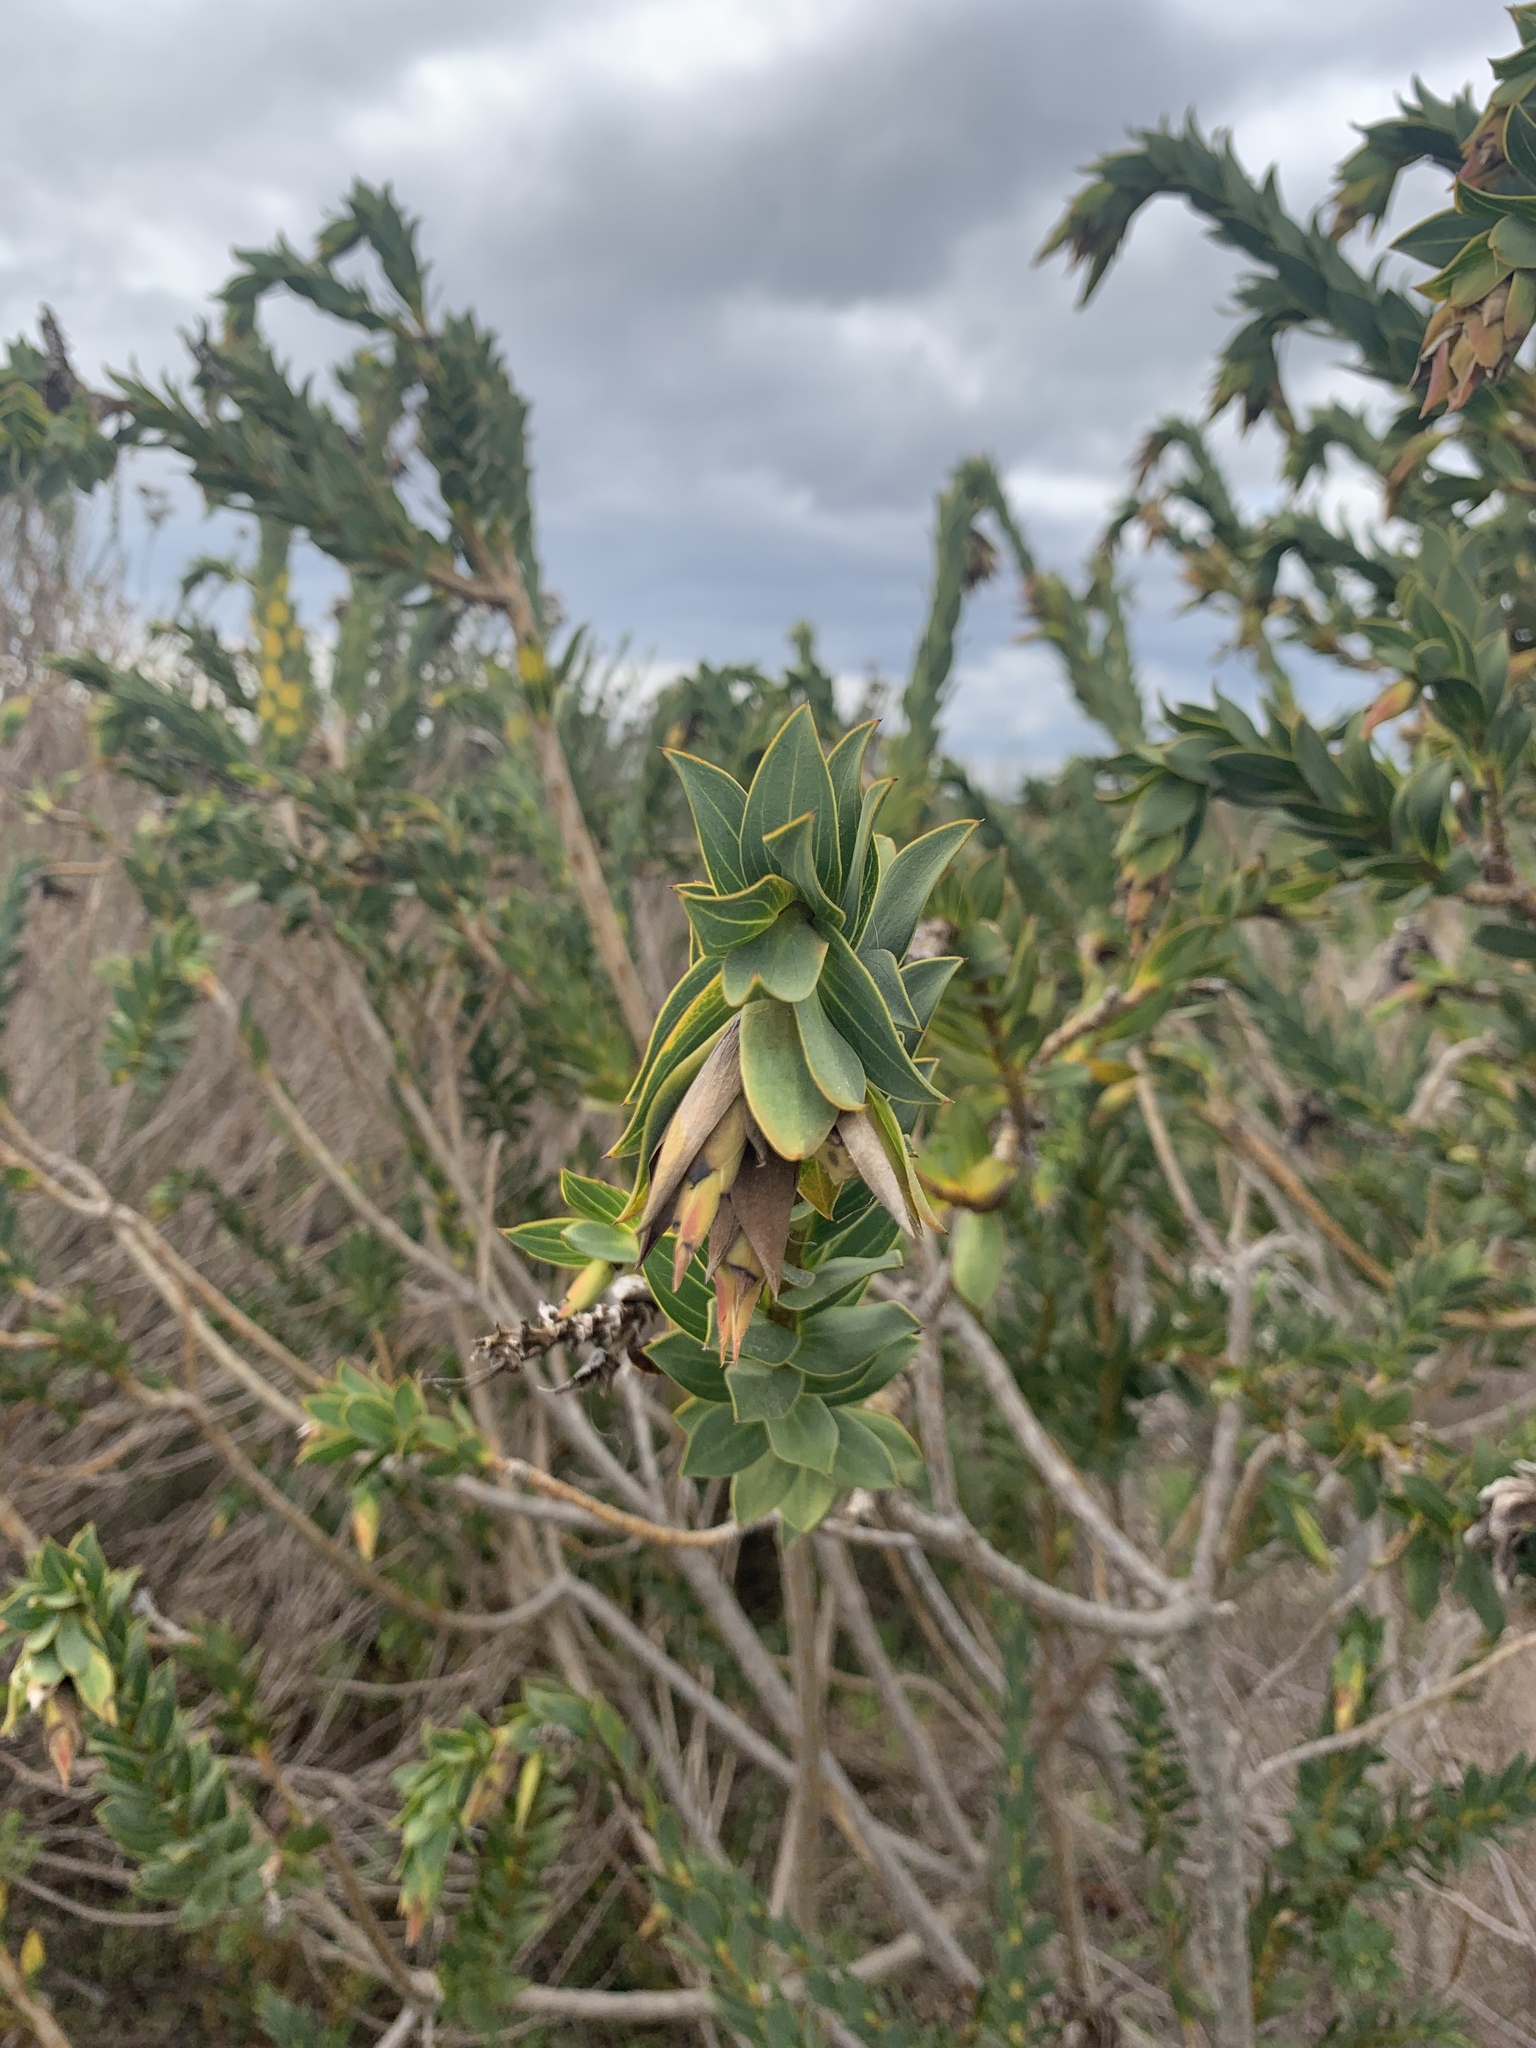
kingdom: Plantae
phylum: Tracheophyta
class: Magnoliopsida
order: Fabales
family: Fabaceae
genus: Liparia
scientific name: Liparia splendens
